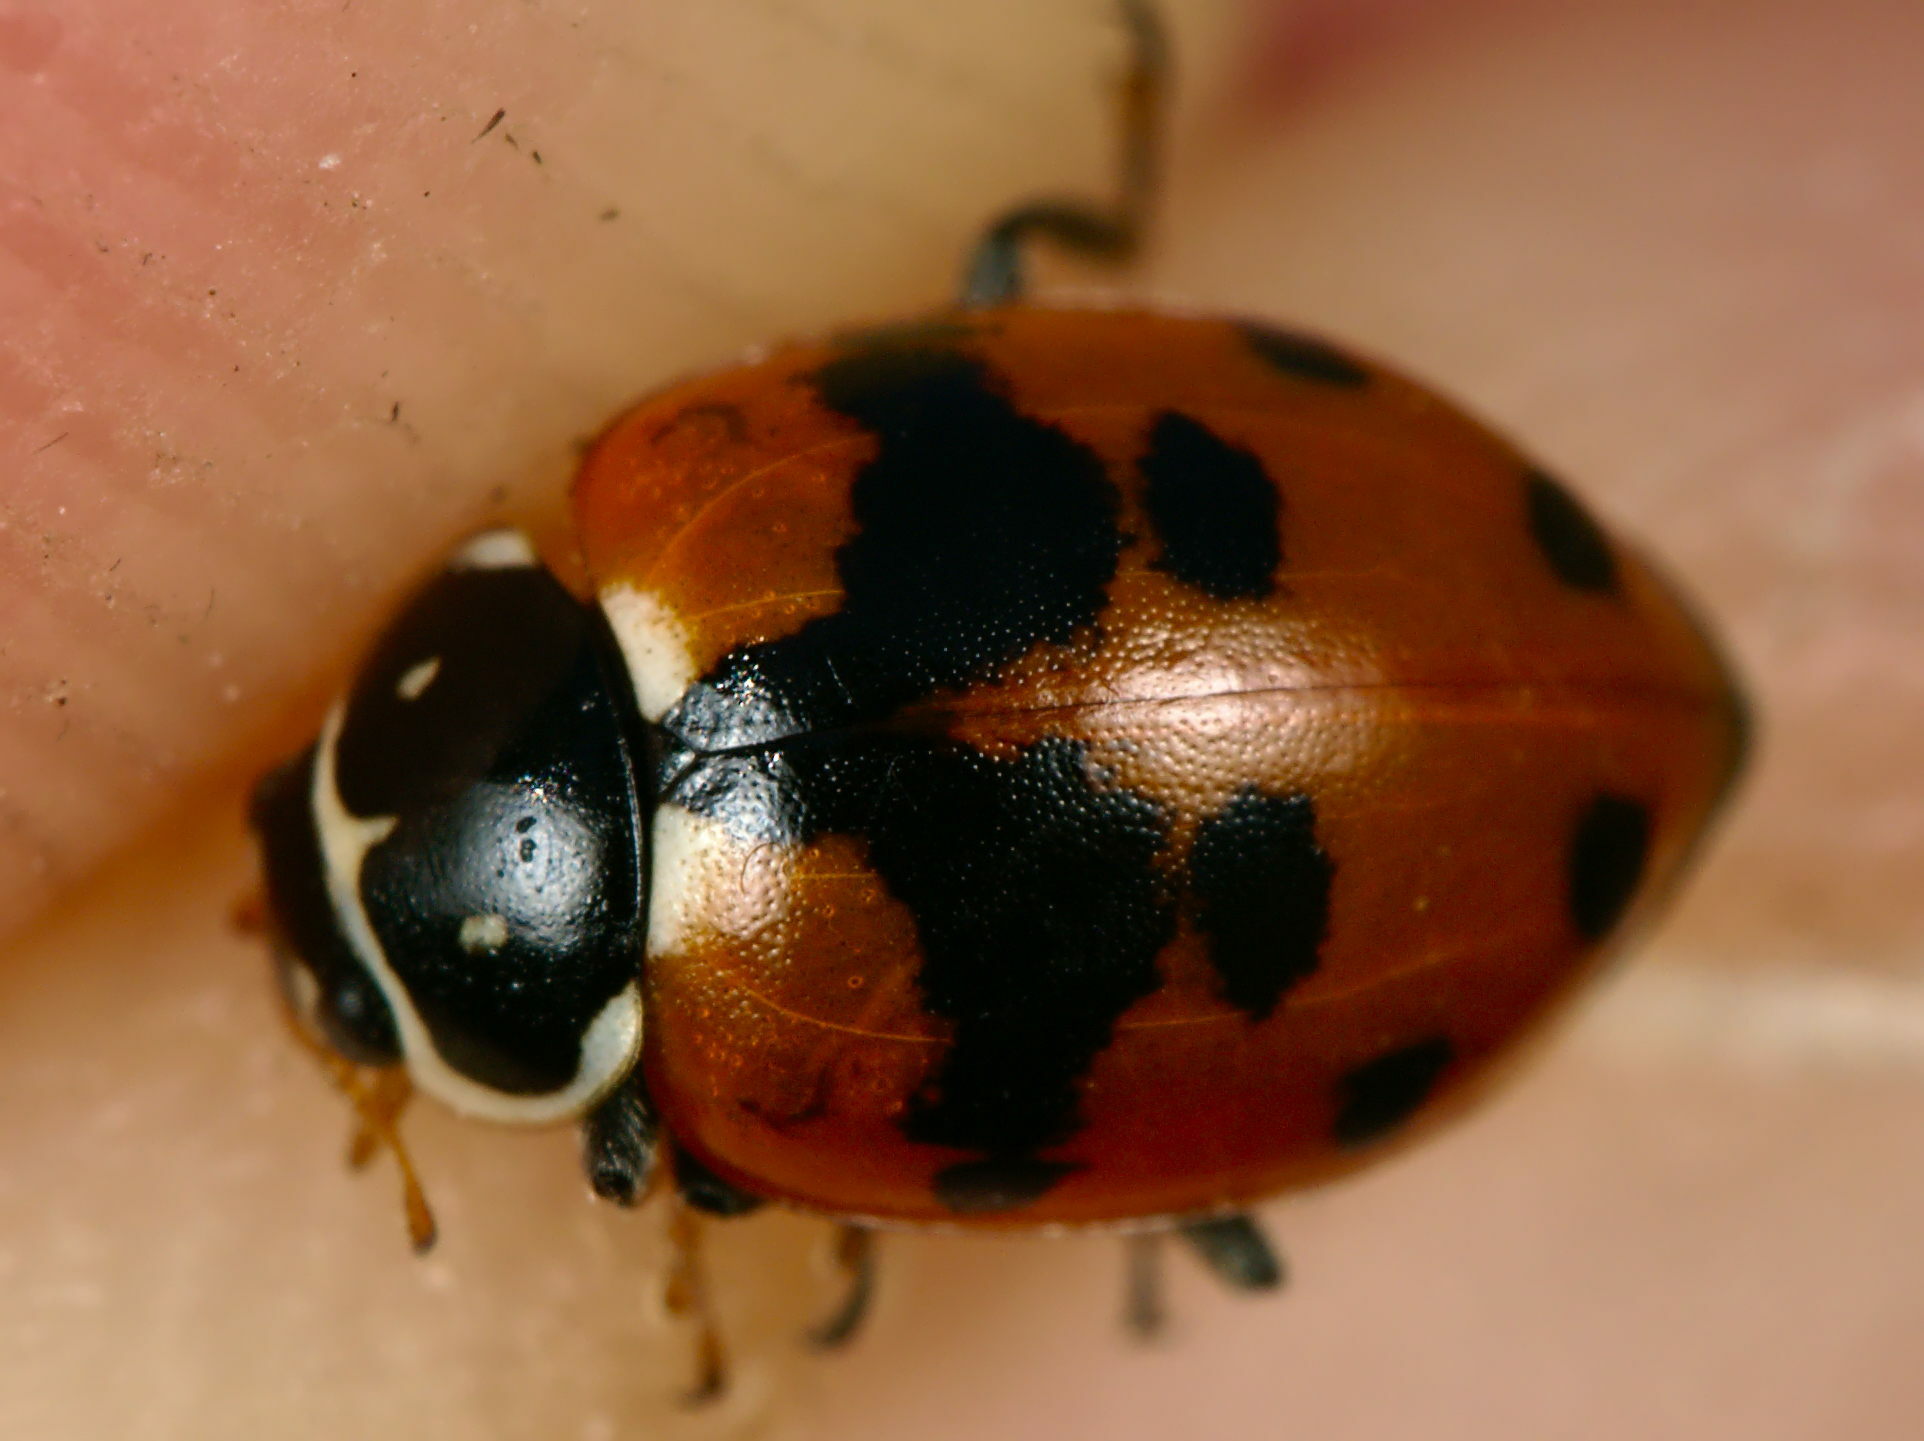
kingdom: Animalia
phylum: Arthropoda
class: Insecta
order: Coleoptera
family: Coccinellidae
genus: Hippodamia
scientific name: Hippodamia variegata
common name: Ladybird beetle
